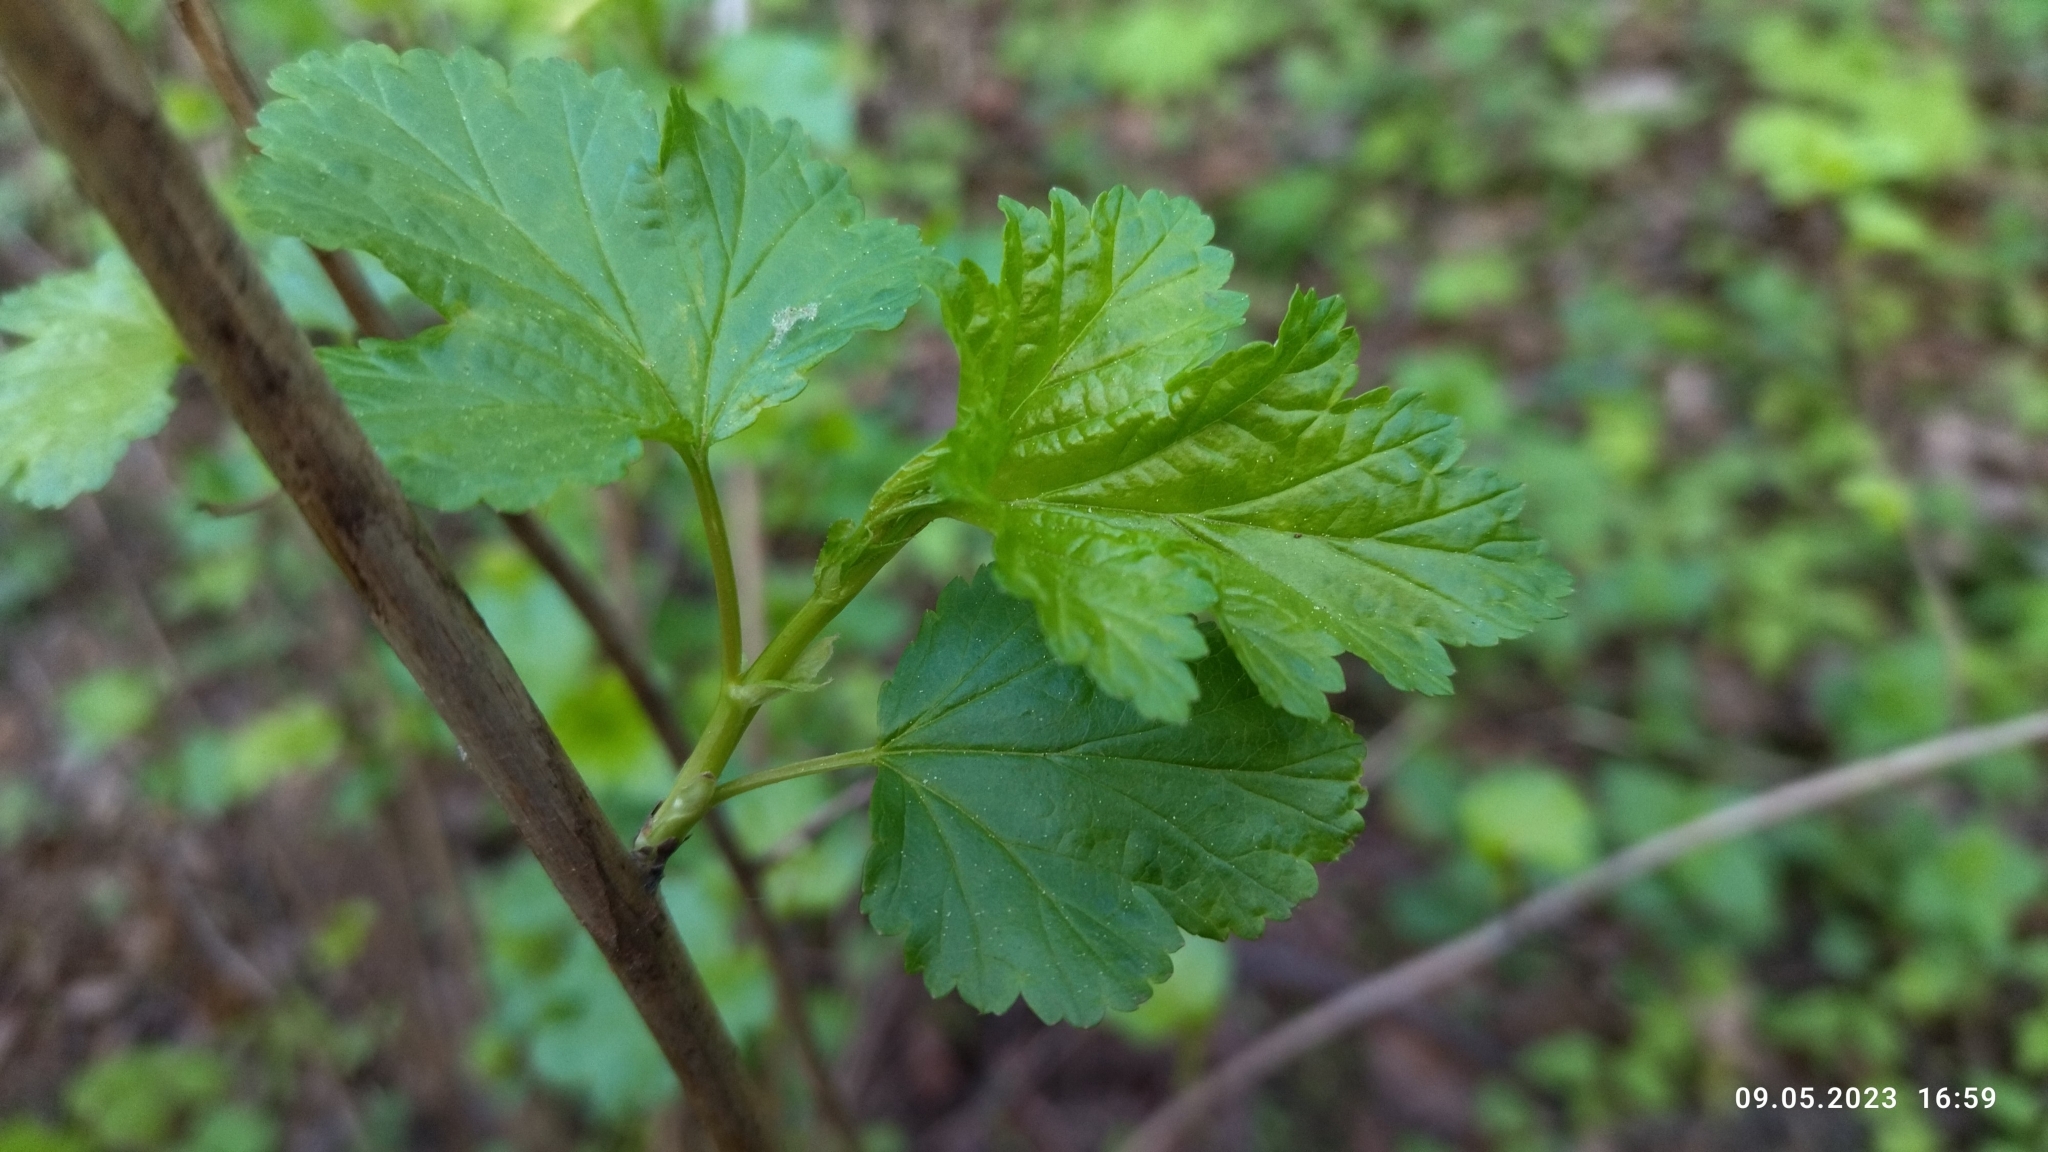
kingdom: Plantae
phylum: Tracheophyta
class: Magnoliopsida
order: Rosales
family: Rosaceae
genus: Physocarpus
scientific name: Physocarpus opulifolius
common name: Ninebark
